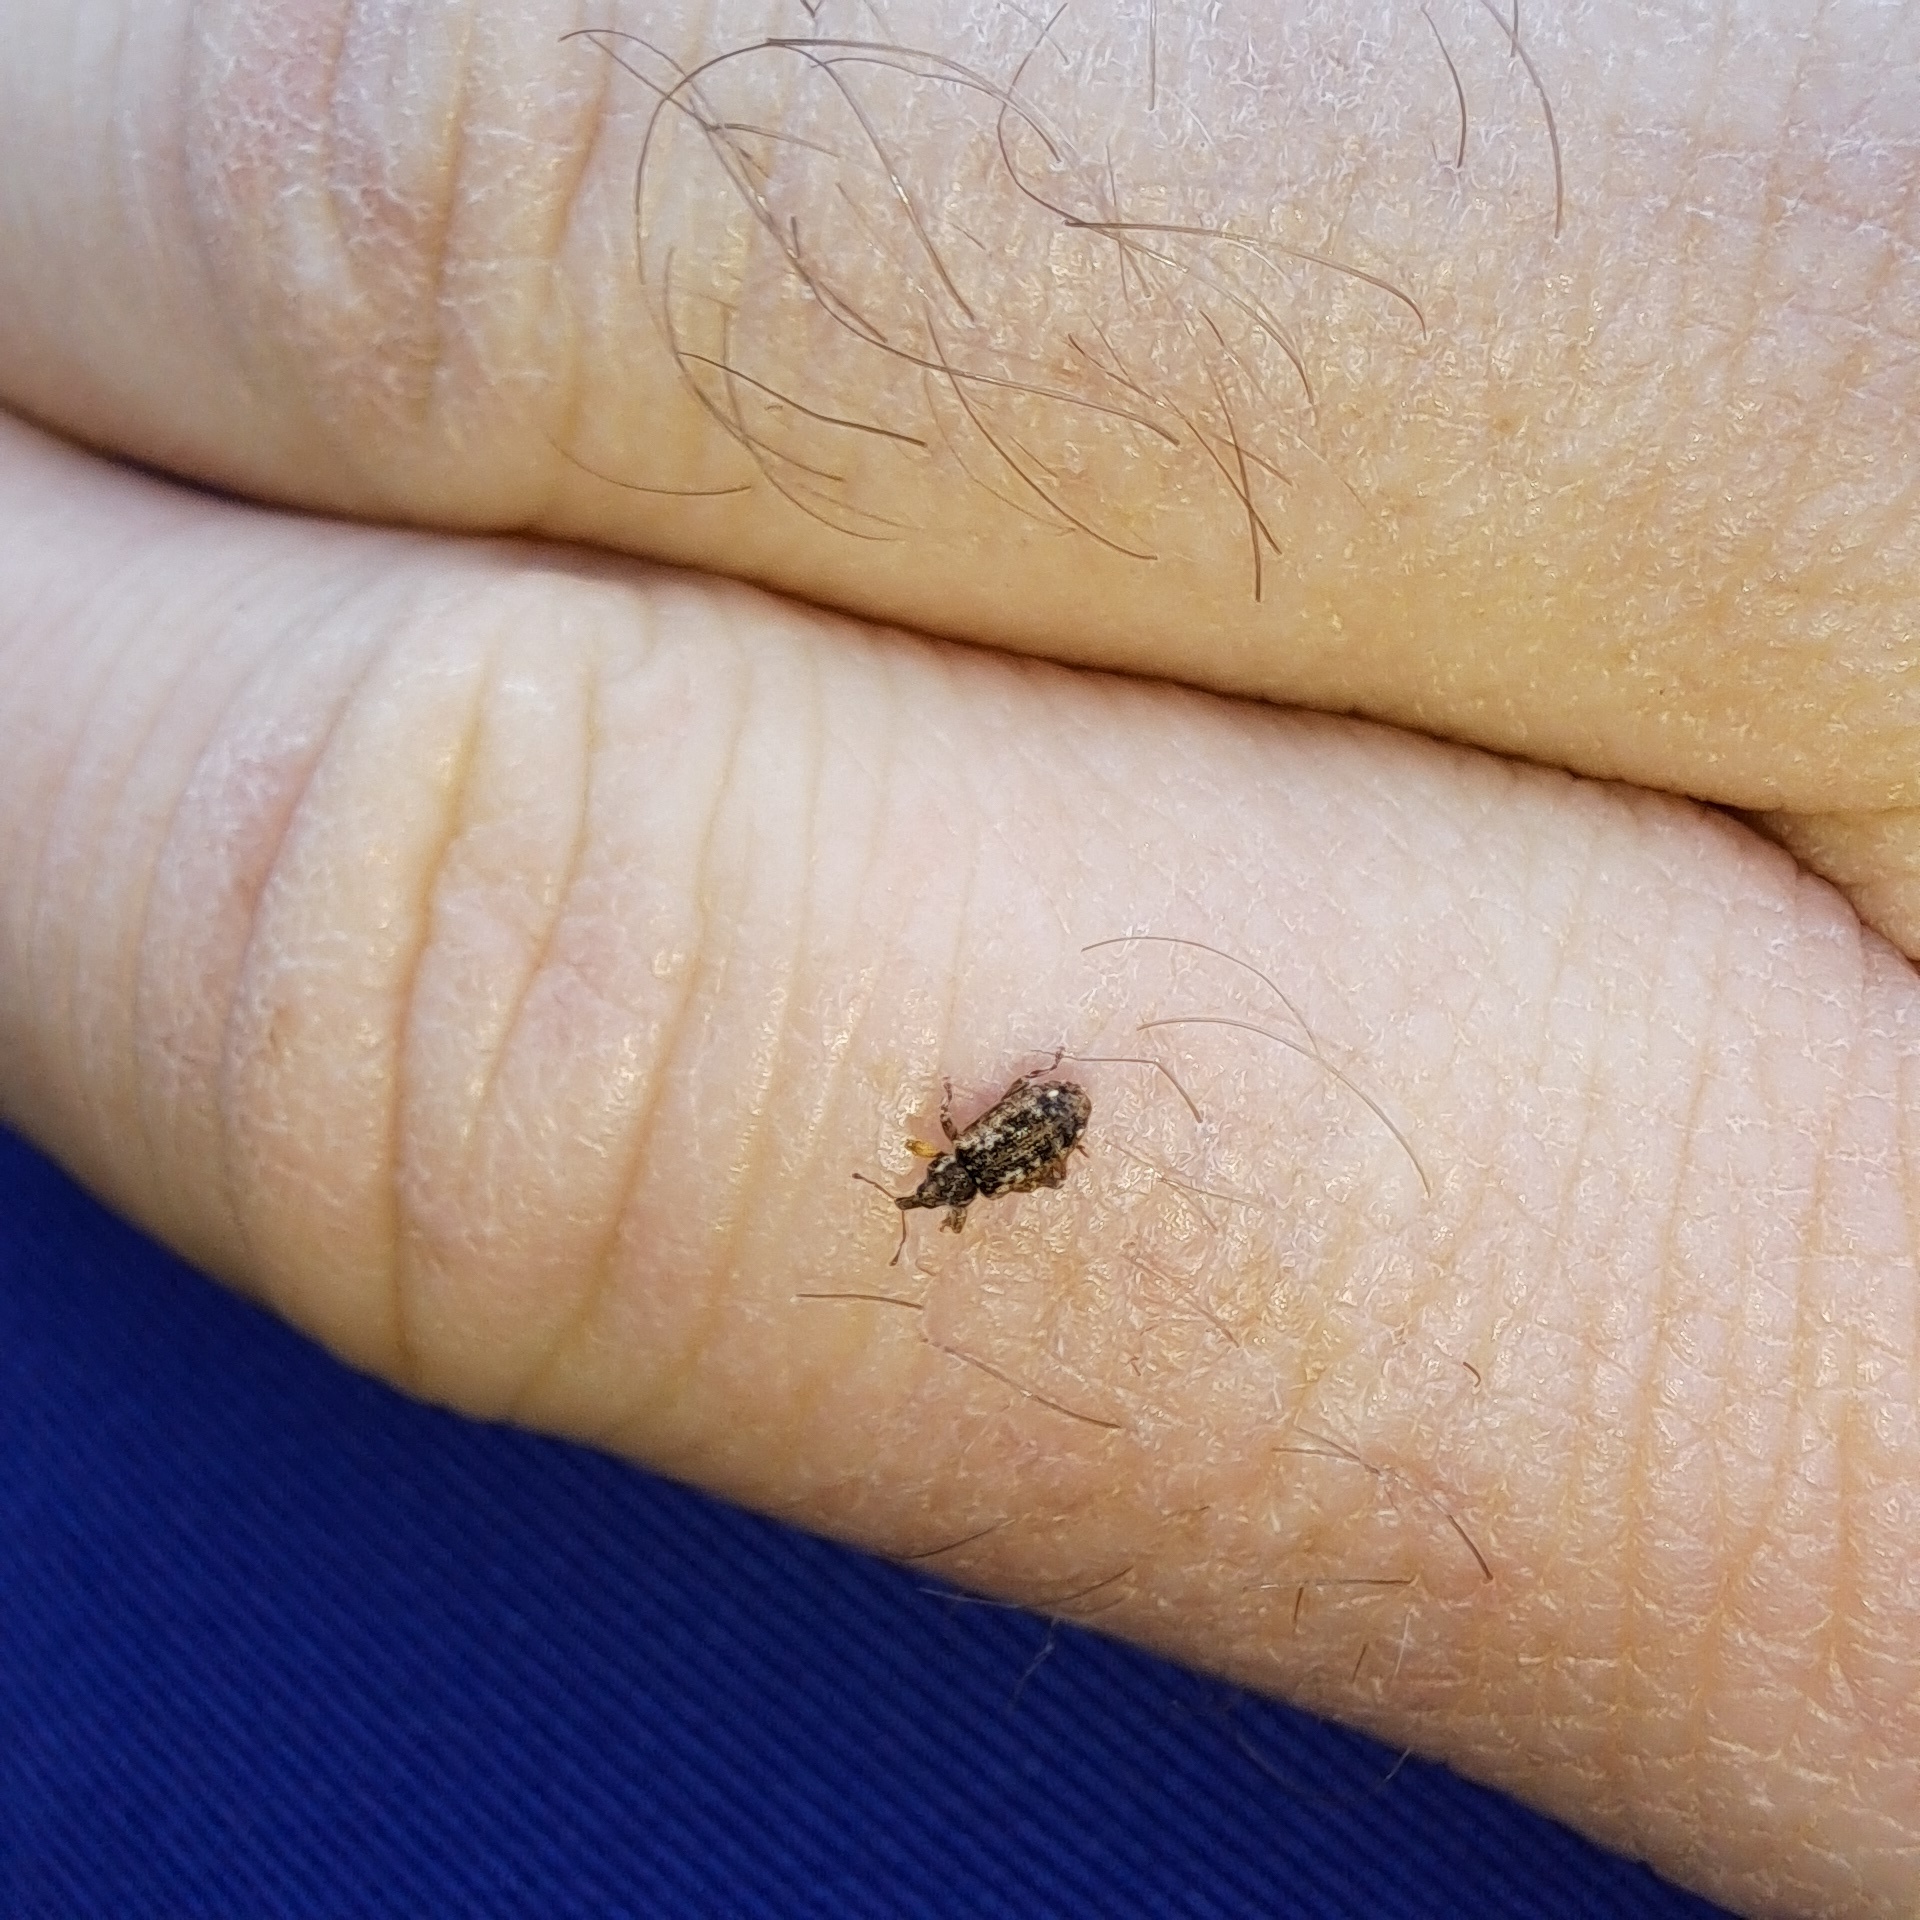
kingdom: Animalia
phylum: Arthropoda
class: Insecta
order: Coleoptera
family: Curculionidae
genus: Dorytomus
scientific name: Dorytomus ictor
